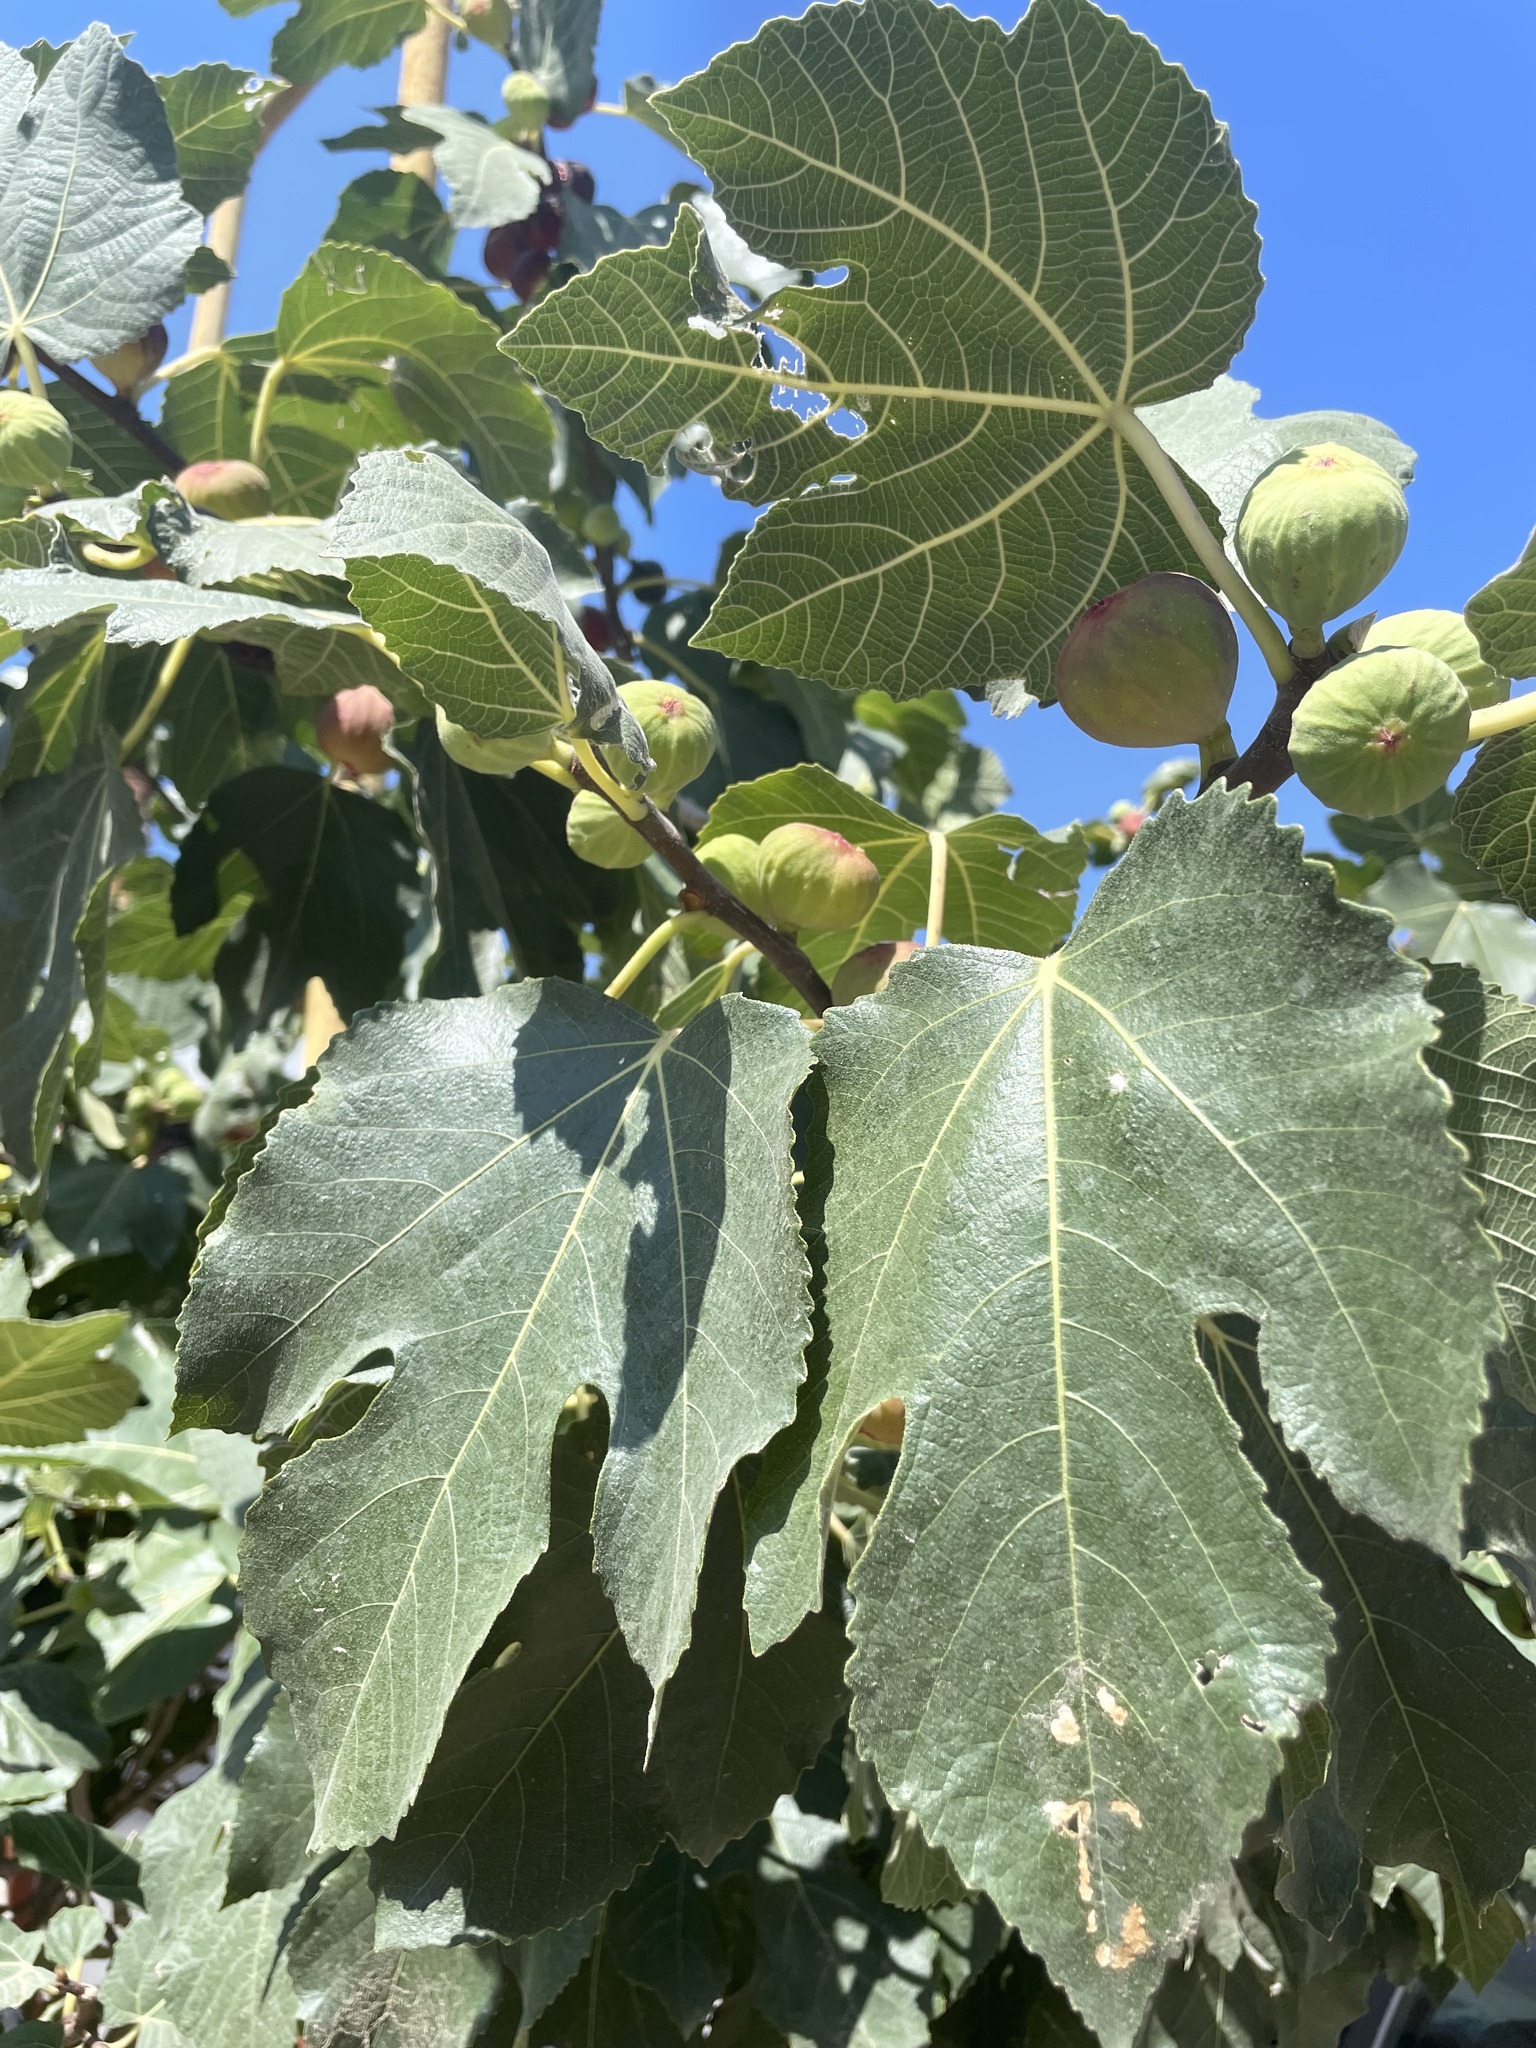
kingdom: Plantae
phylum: Tracheophyta
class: Magnoliopsida
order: Rosales
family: Moraceae
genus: Ficus
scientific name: Ficus carica
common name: Fig
